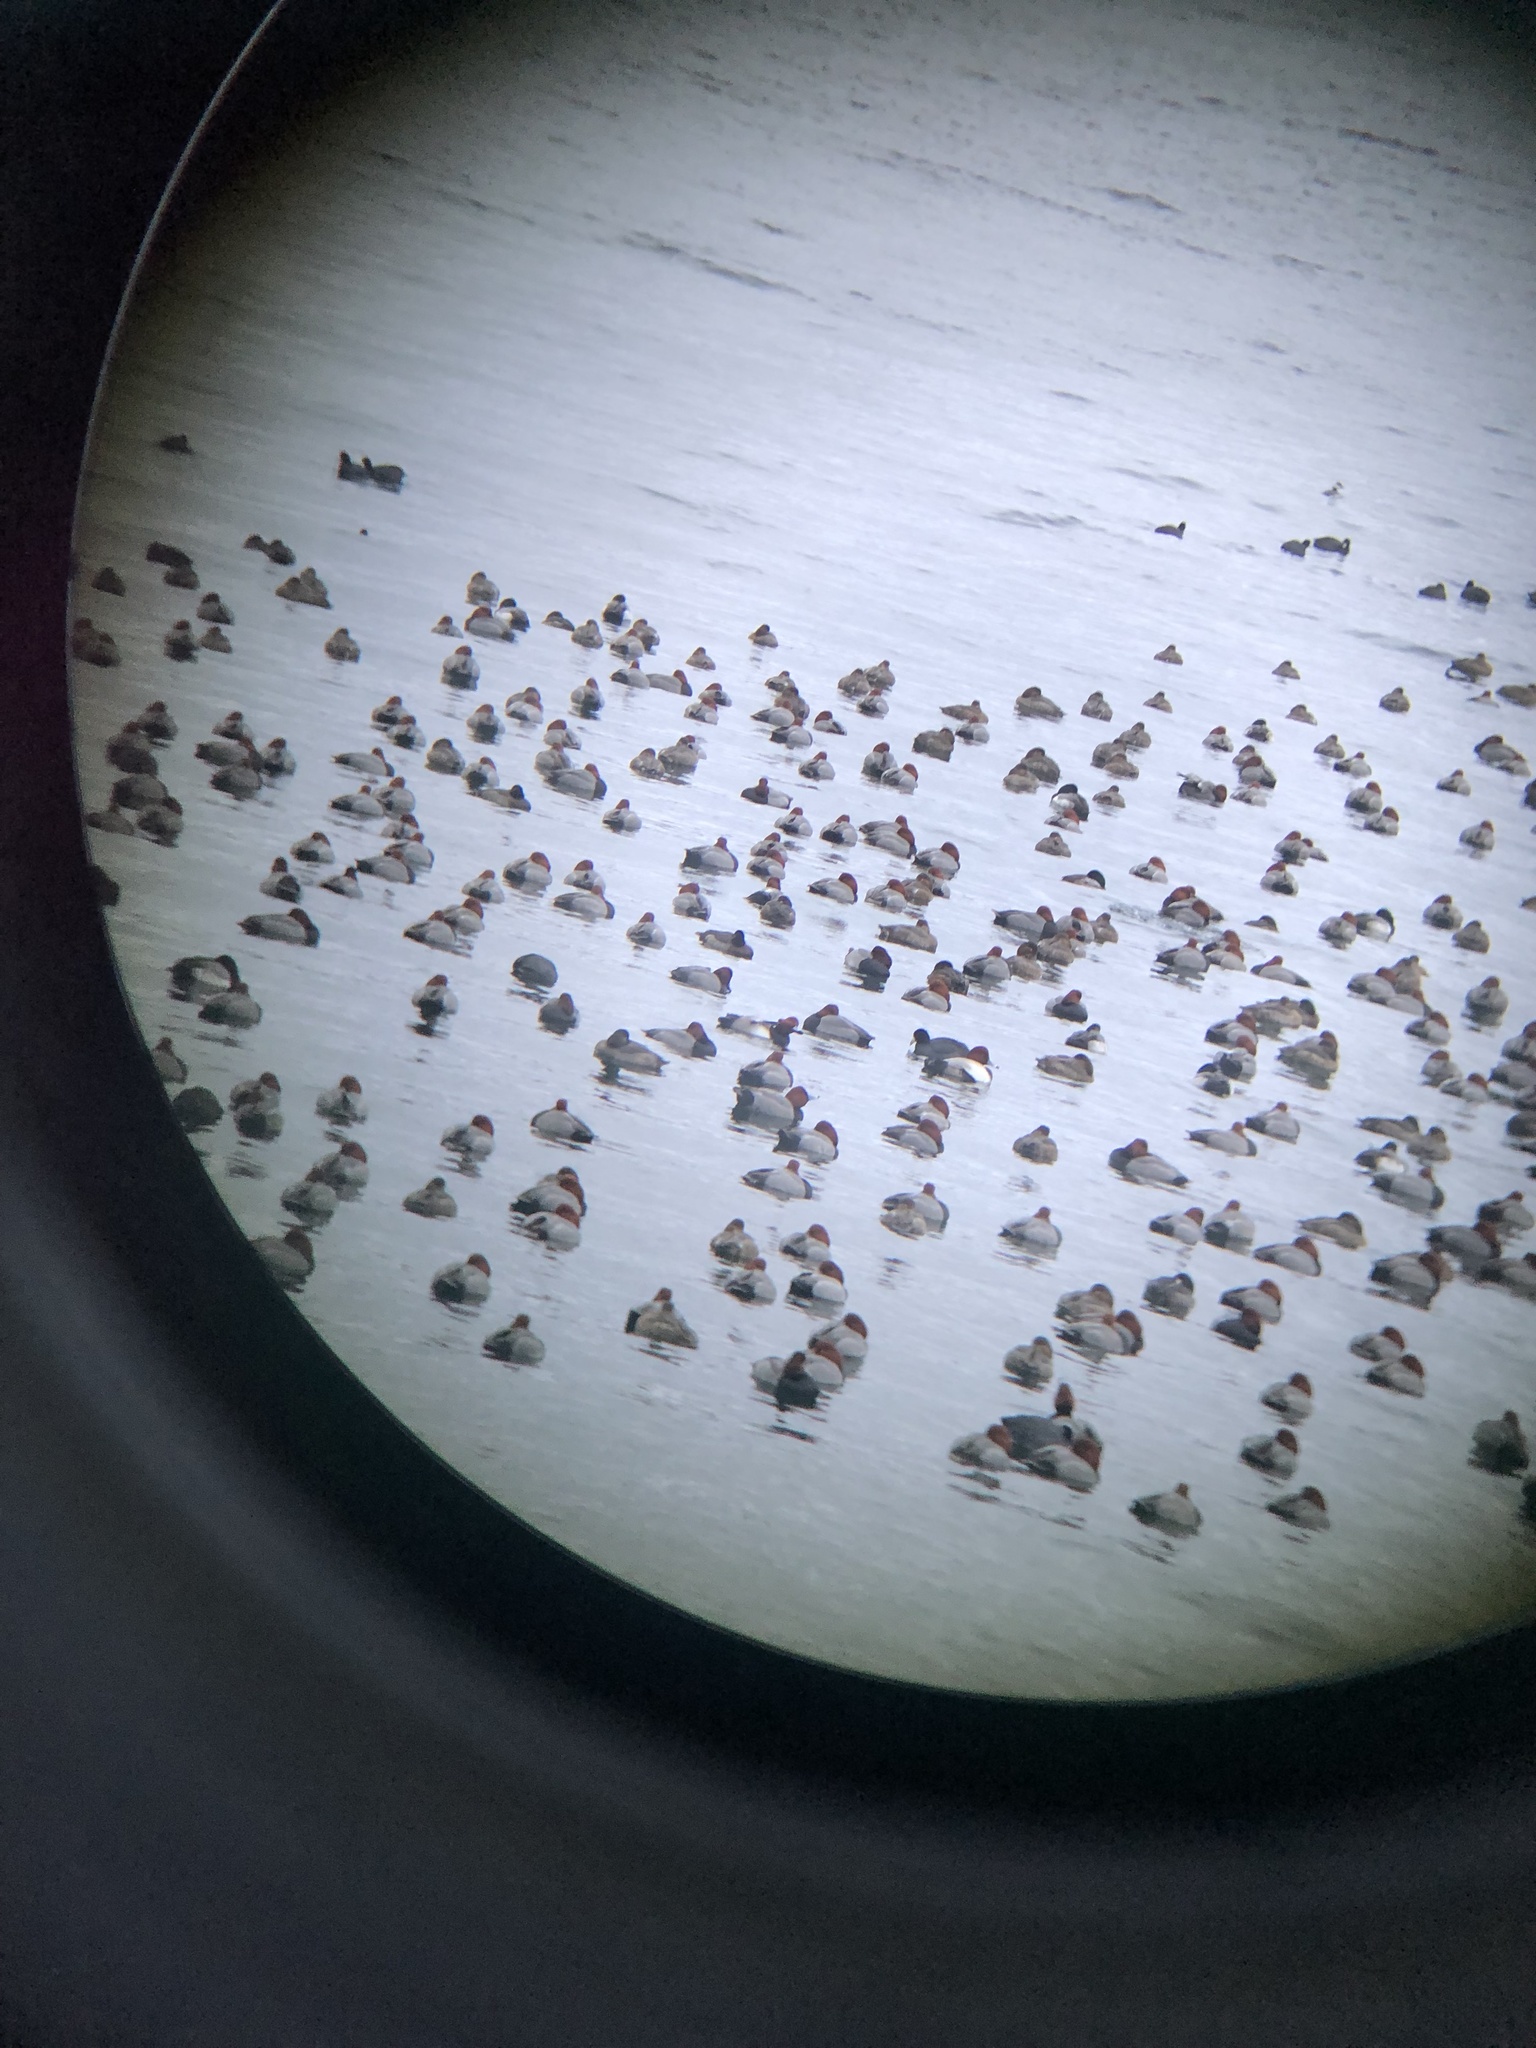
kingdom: Animalia
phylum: Chordata
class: Aves
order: Anseriformes
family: Anatidae
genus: Aythya
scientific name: Aythya americana
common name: Redhead
